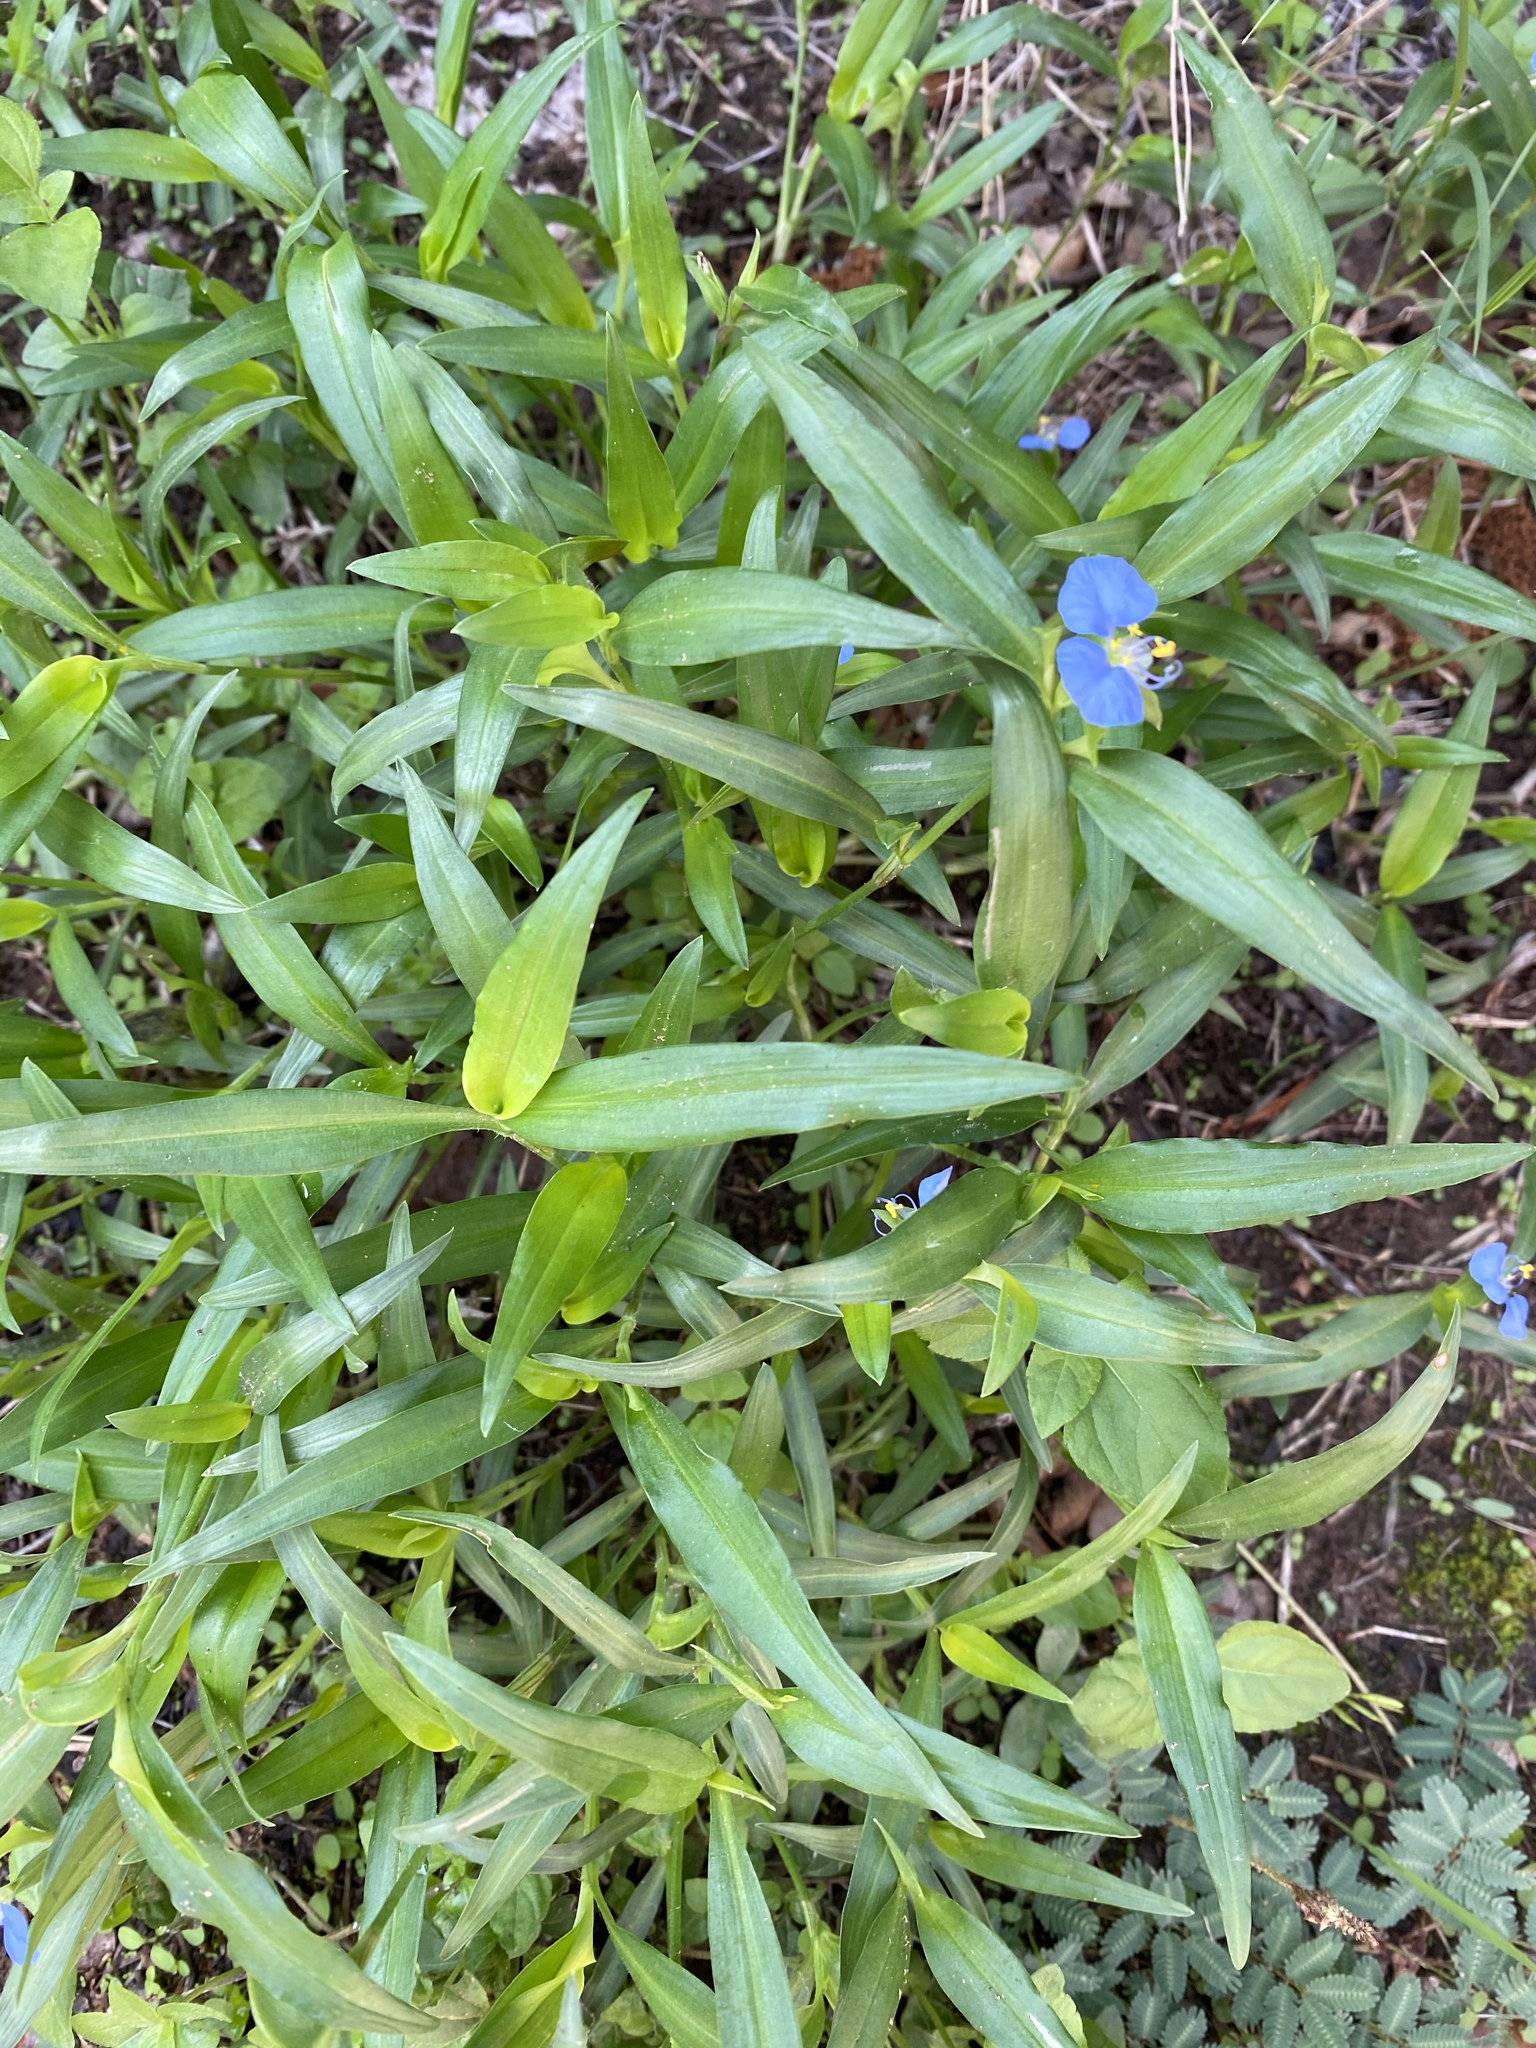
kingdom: Plantae
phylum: Tracheophyta
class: Liliopsida
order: Commelinales
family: Commelinaceae
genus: Commelina
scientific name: Commelina erecta
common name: Blousel blommetjie
